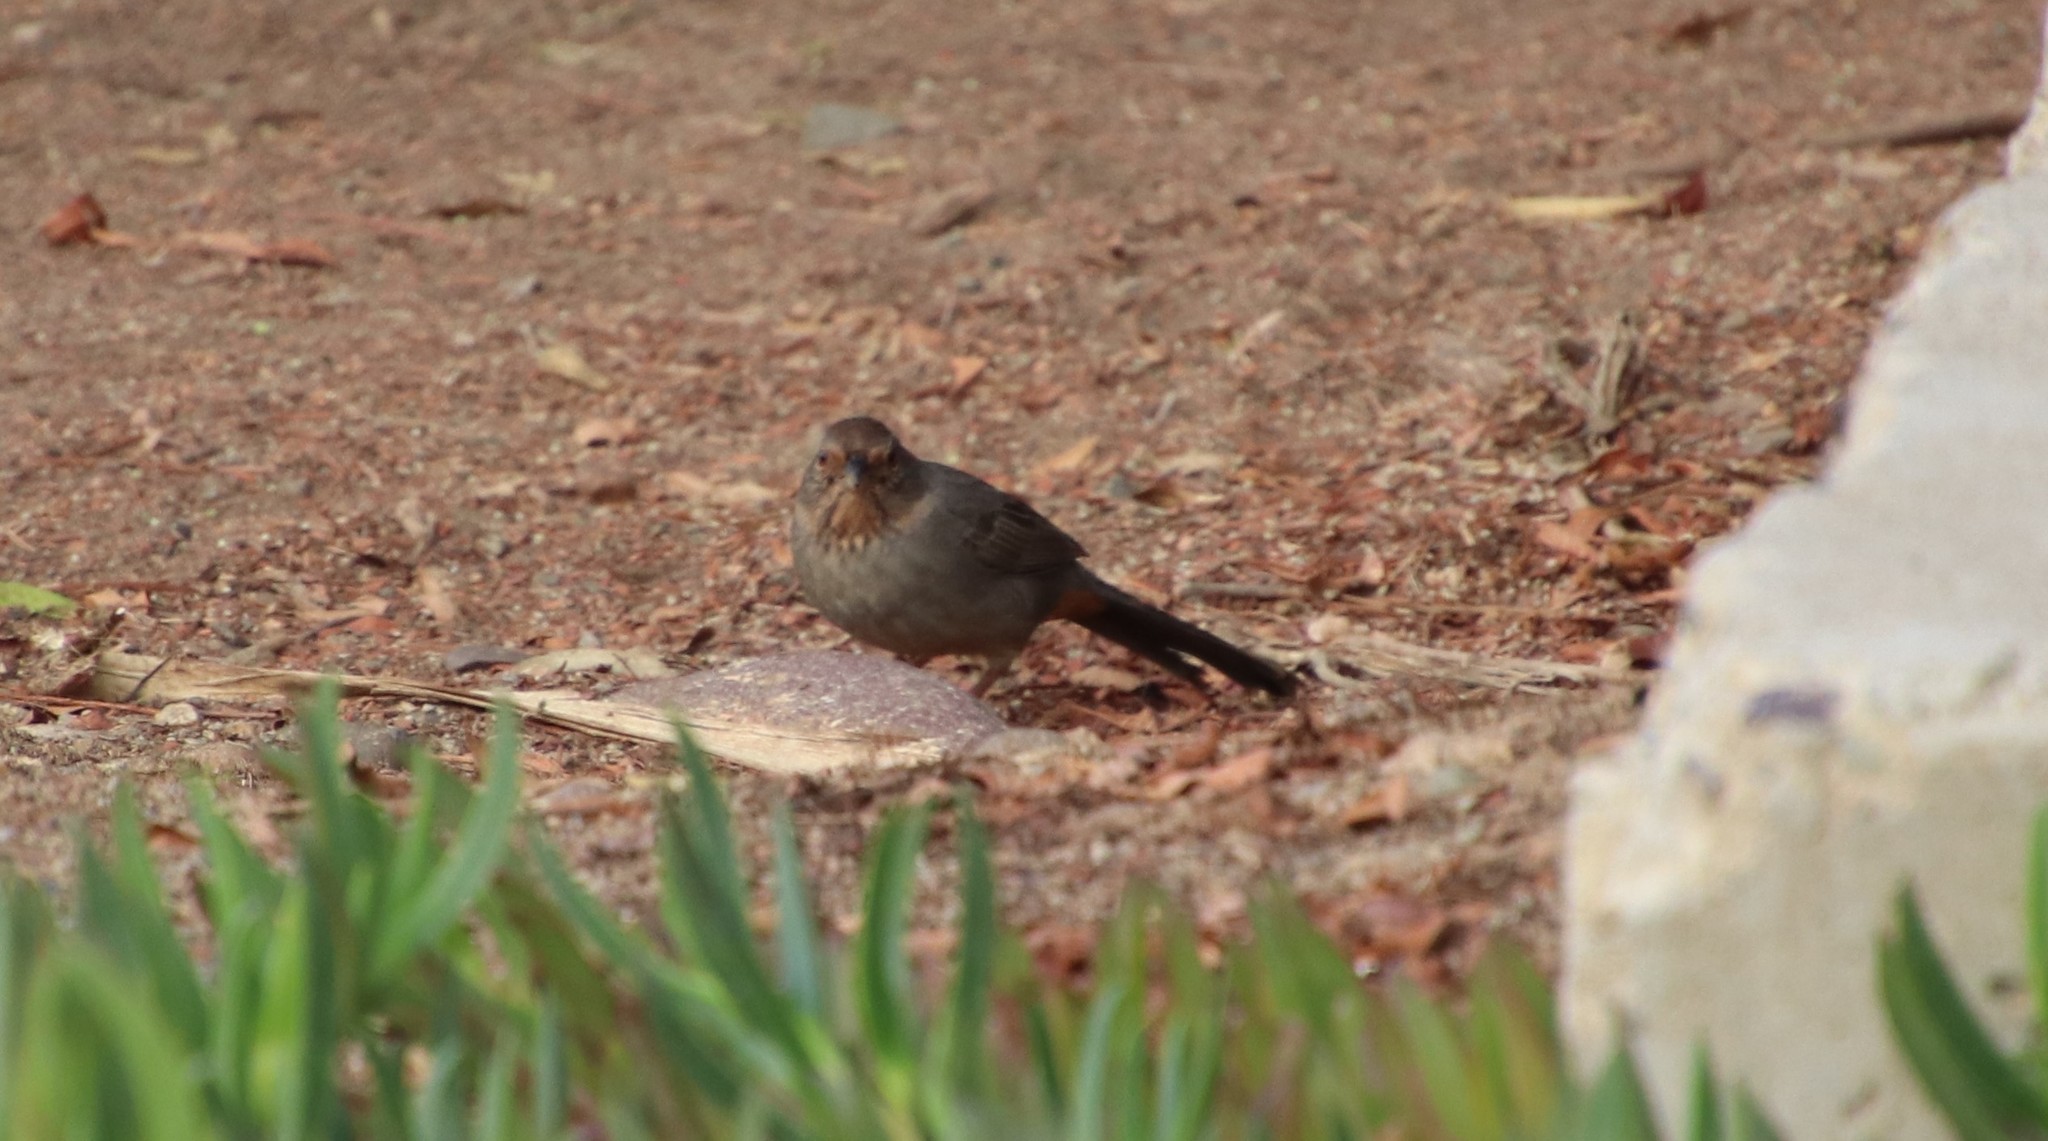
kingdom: Animalia
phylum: Chordata
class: Aves
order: Passeriformes
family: Passerellidae
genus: Melozone
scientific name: Melozone crissalis
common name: California towhee
